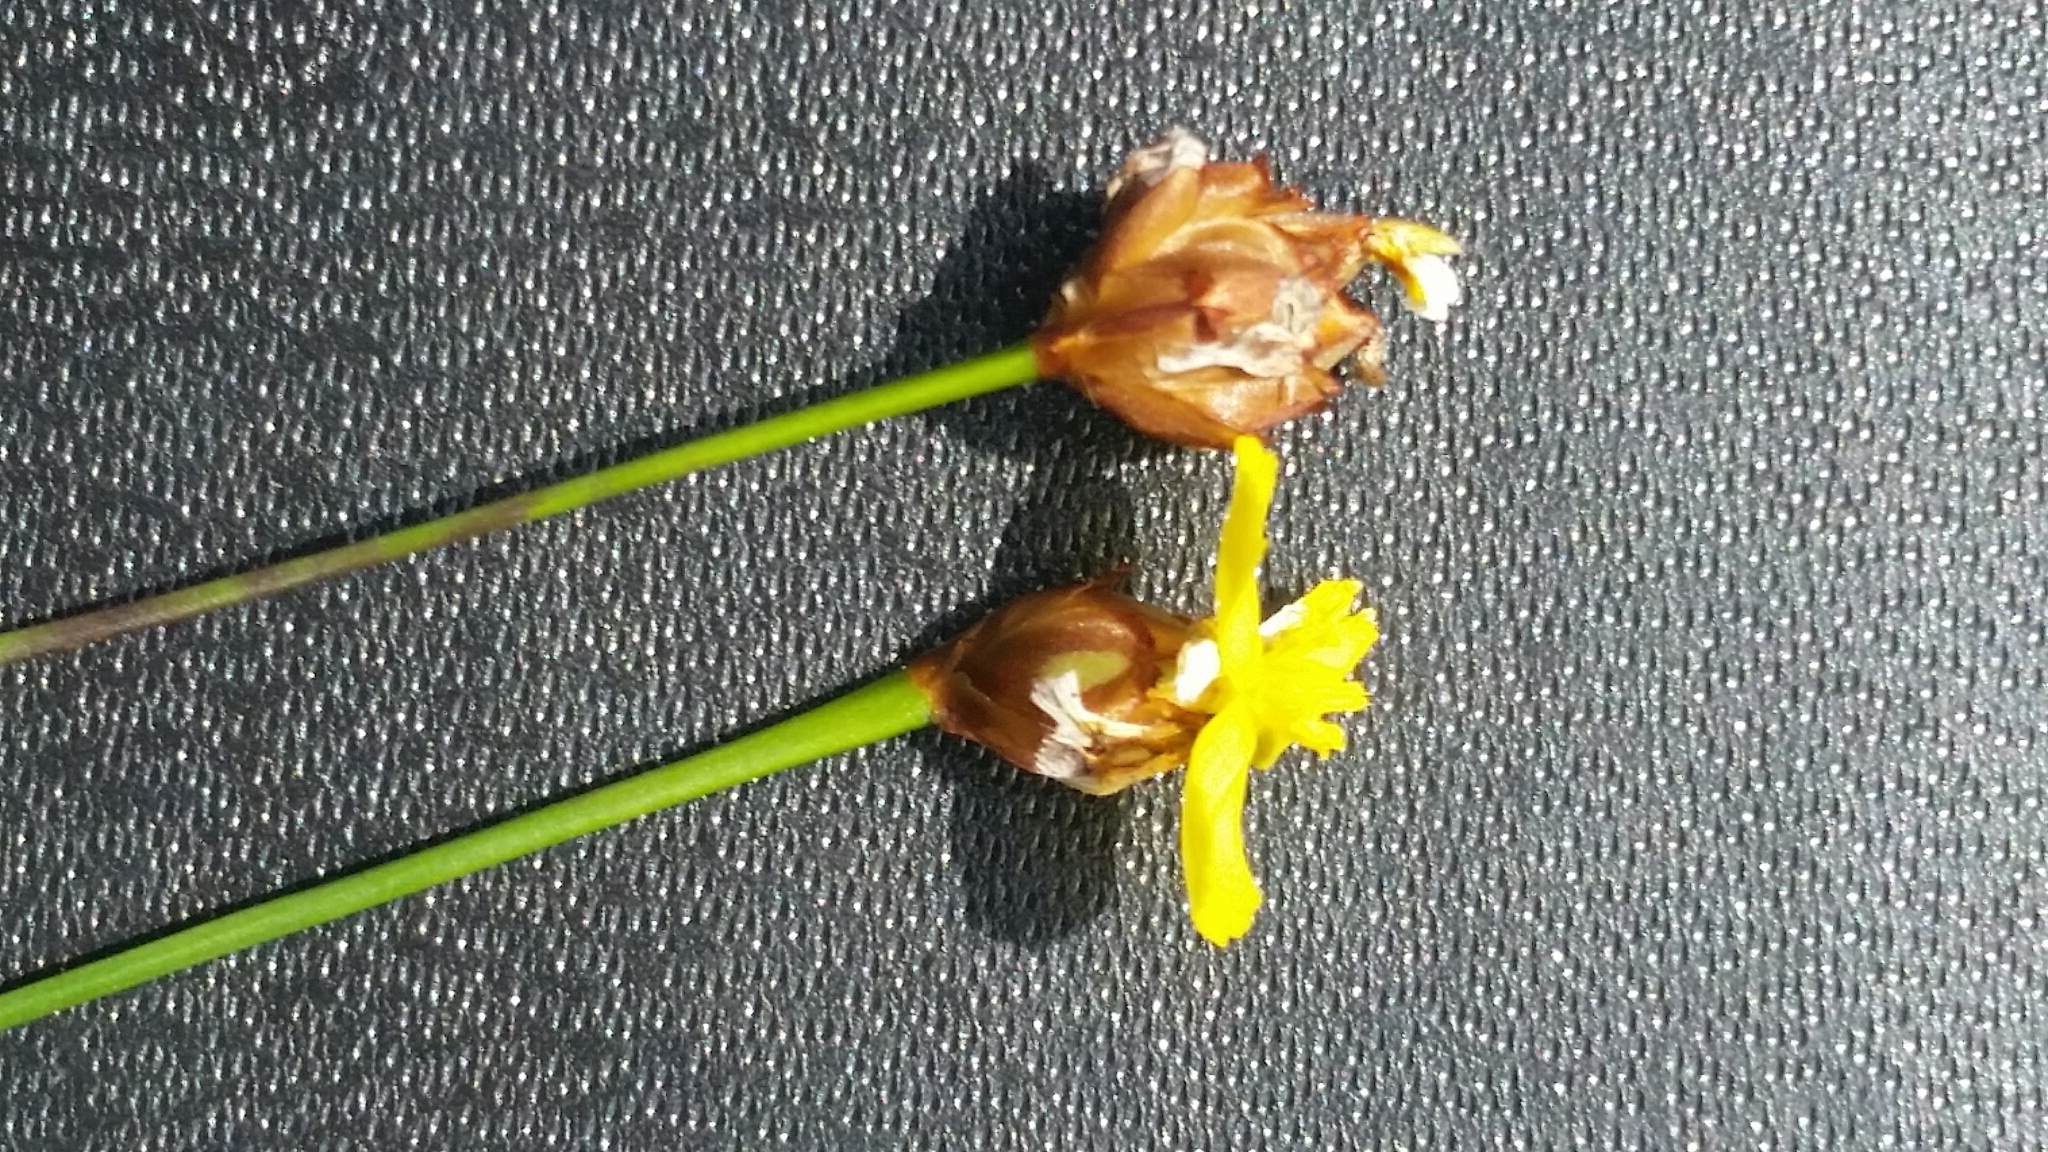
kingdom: Plantae
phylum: Tracheophyta
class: Liliopsida
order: Poales
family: Xyridaceae
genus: Xyris
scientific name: Xyris brevifolia
